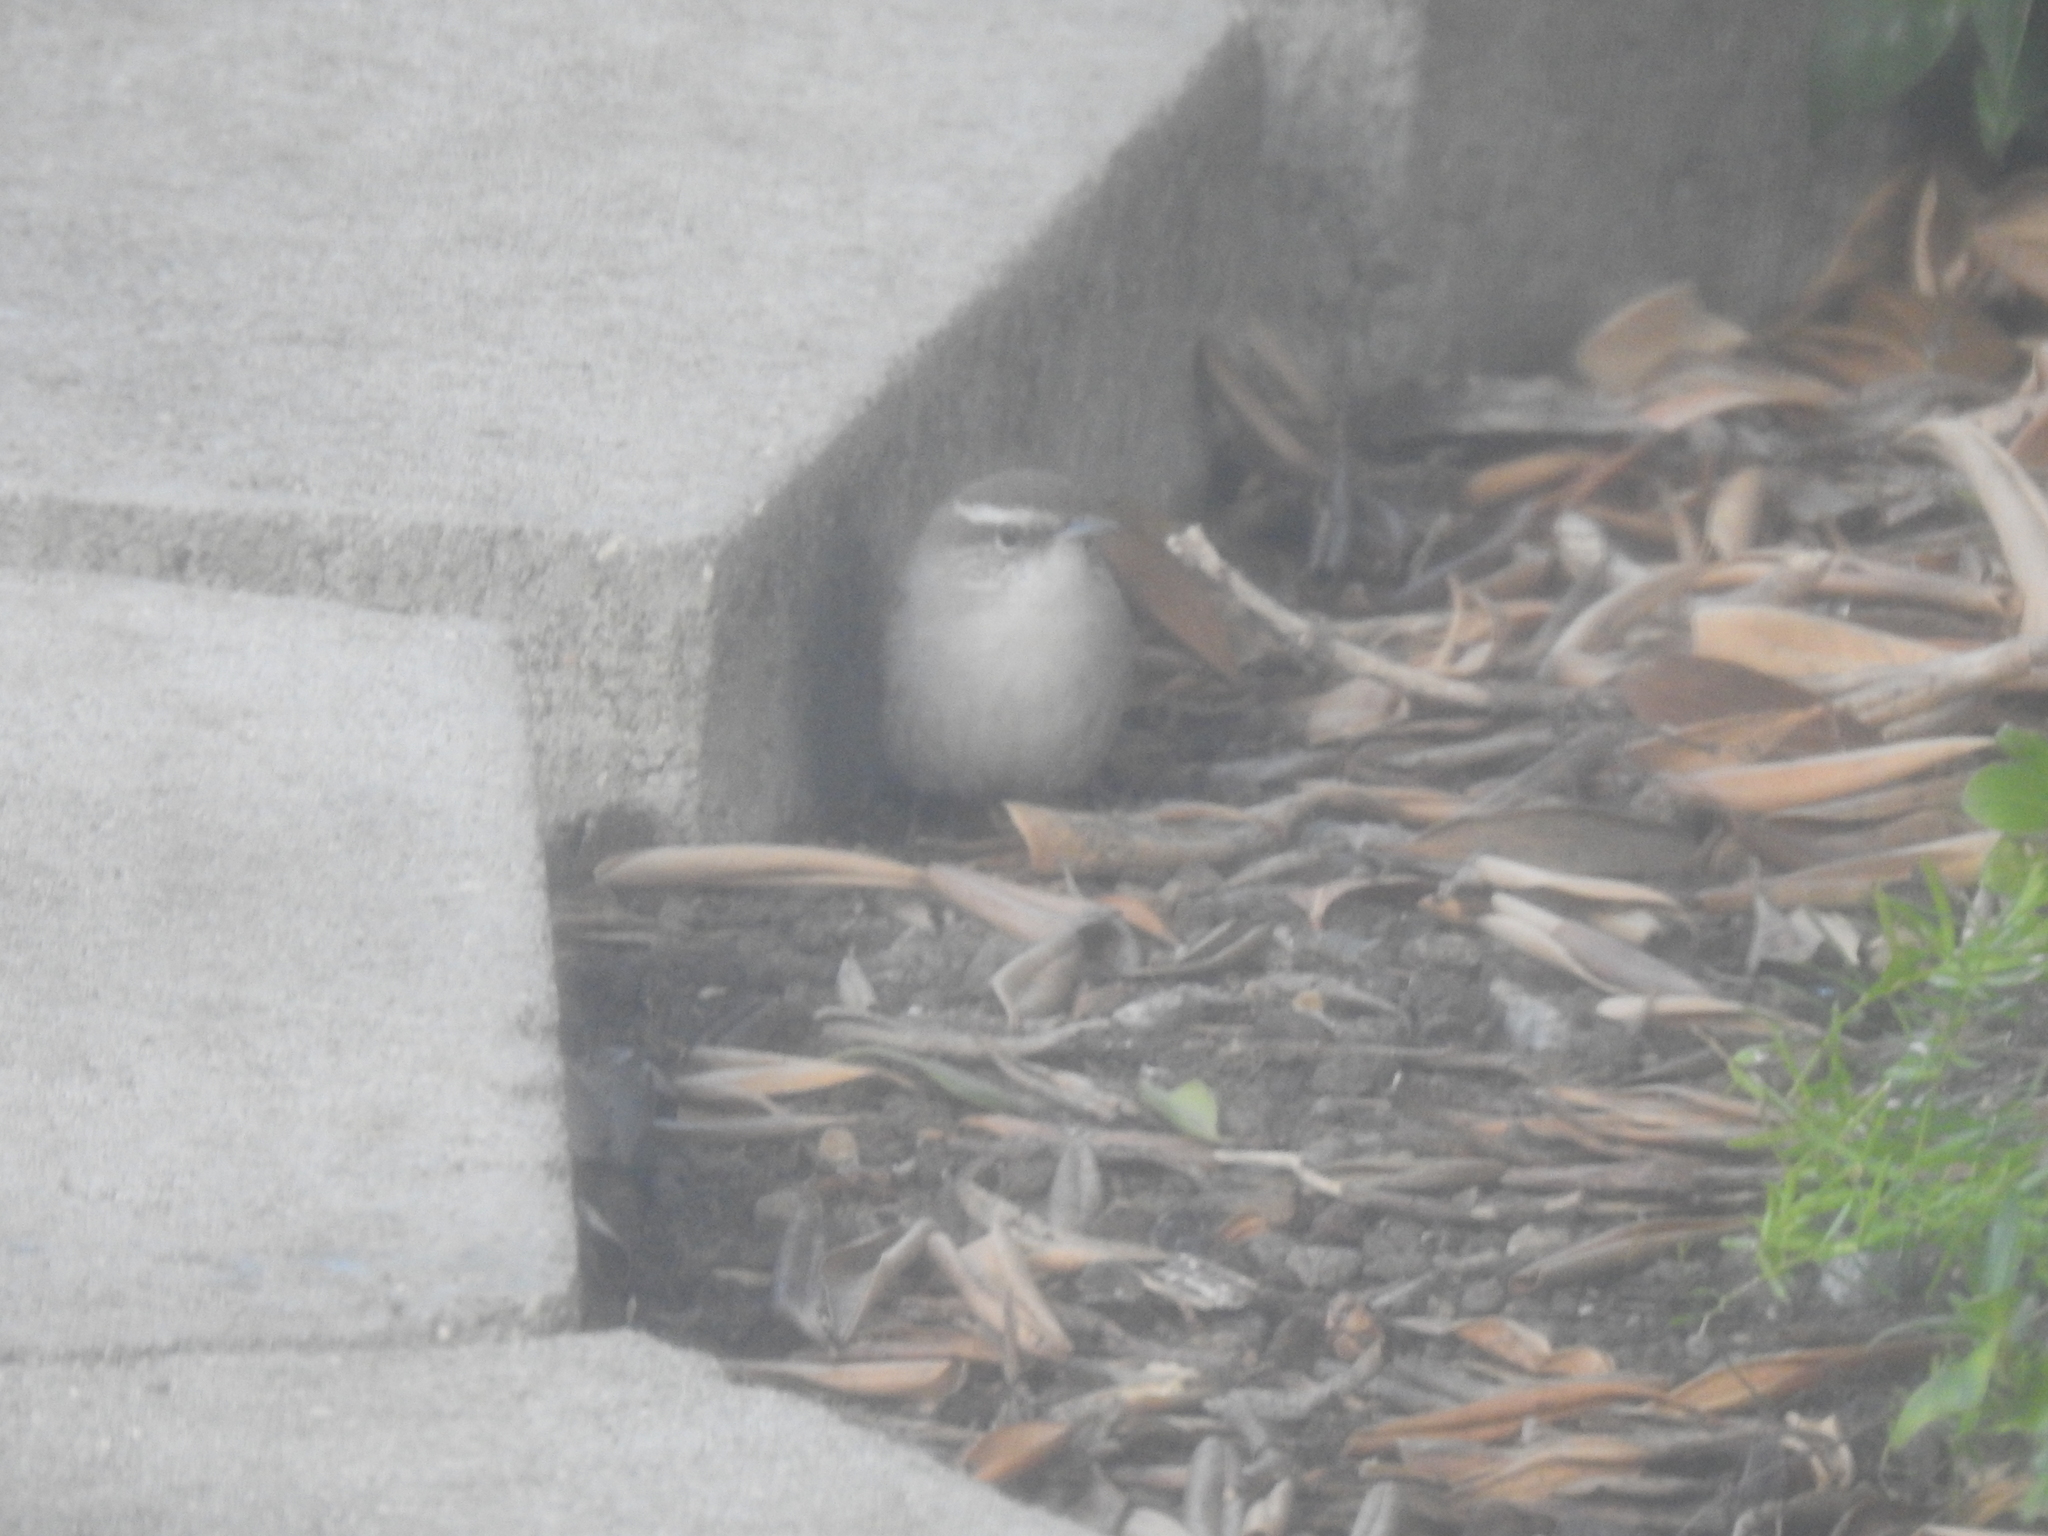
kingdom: Animalia
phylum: Chordata
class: Aves
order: Passeriformes
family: Troglodytidae
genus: Thryomanes
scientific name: Thryomanes bewickii
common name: Bewick's wren
